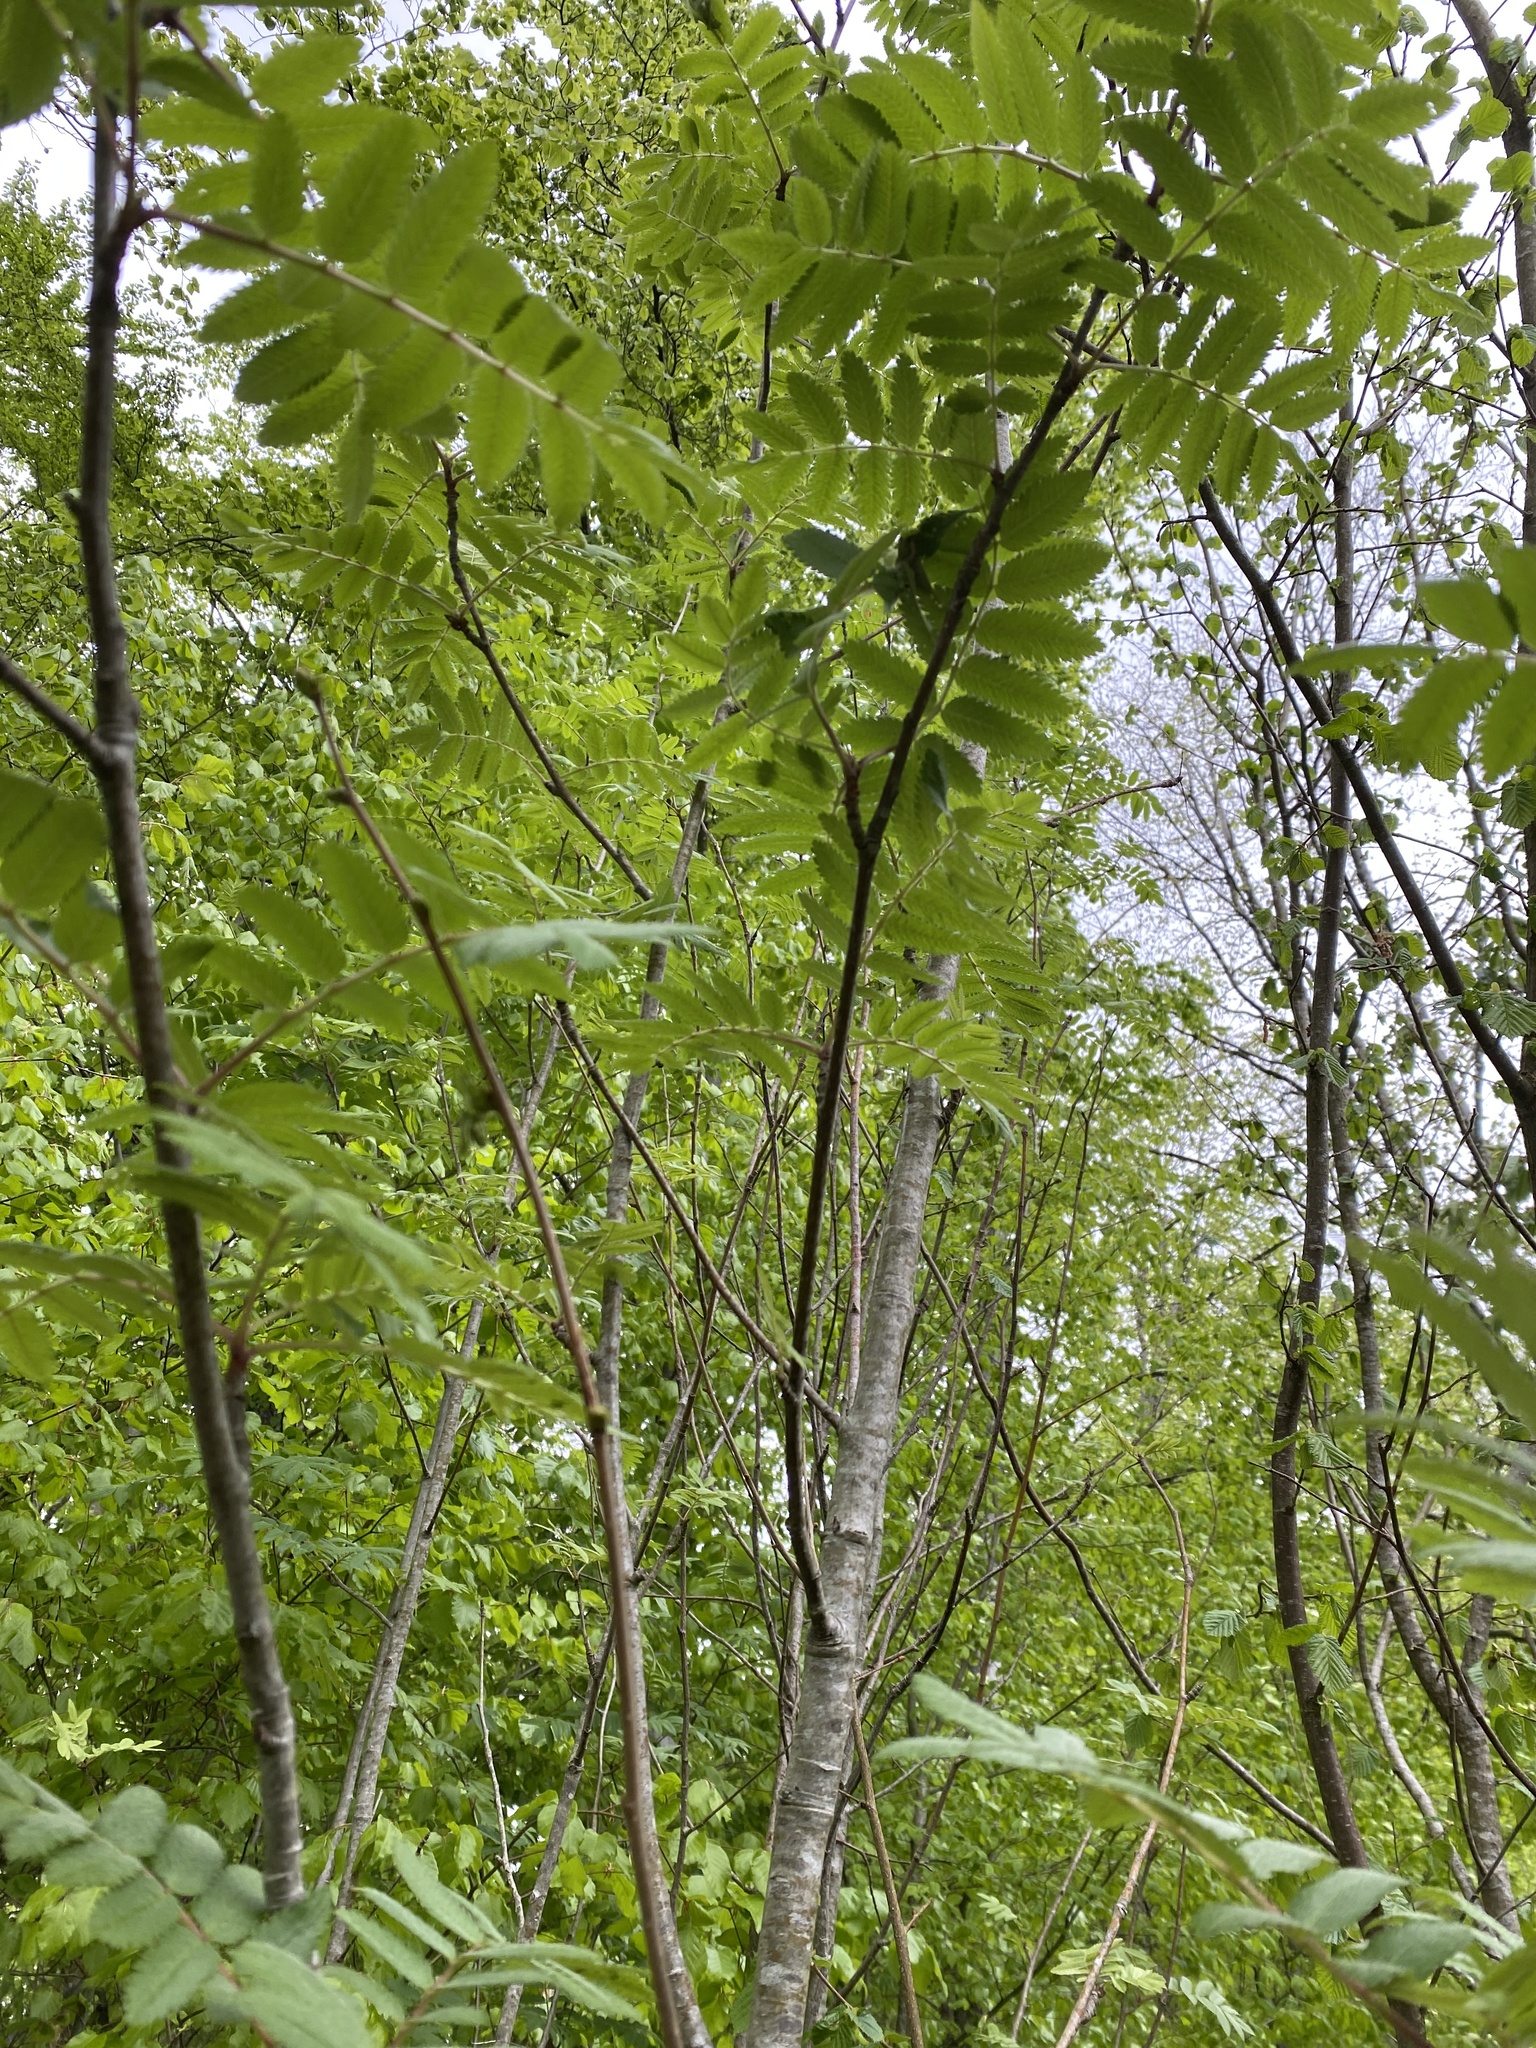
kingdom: Plantae
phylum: Tracheophyta
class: Magnoliopsida
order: Rosales
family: Rosaceae
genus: Sorbus
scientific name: Sorbus aucuparia
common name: Rowan
